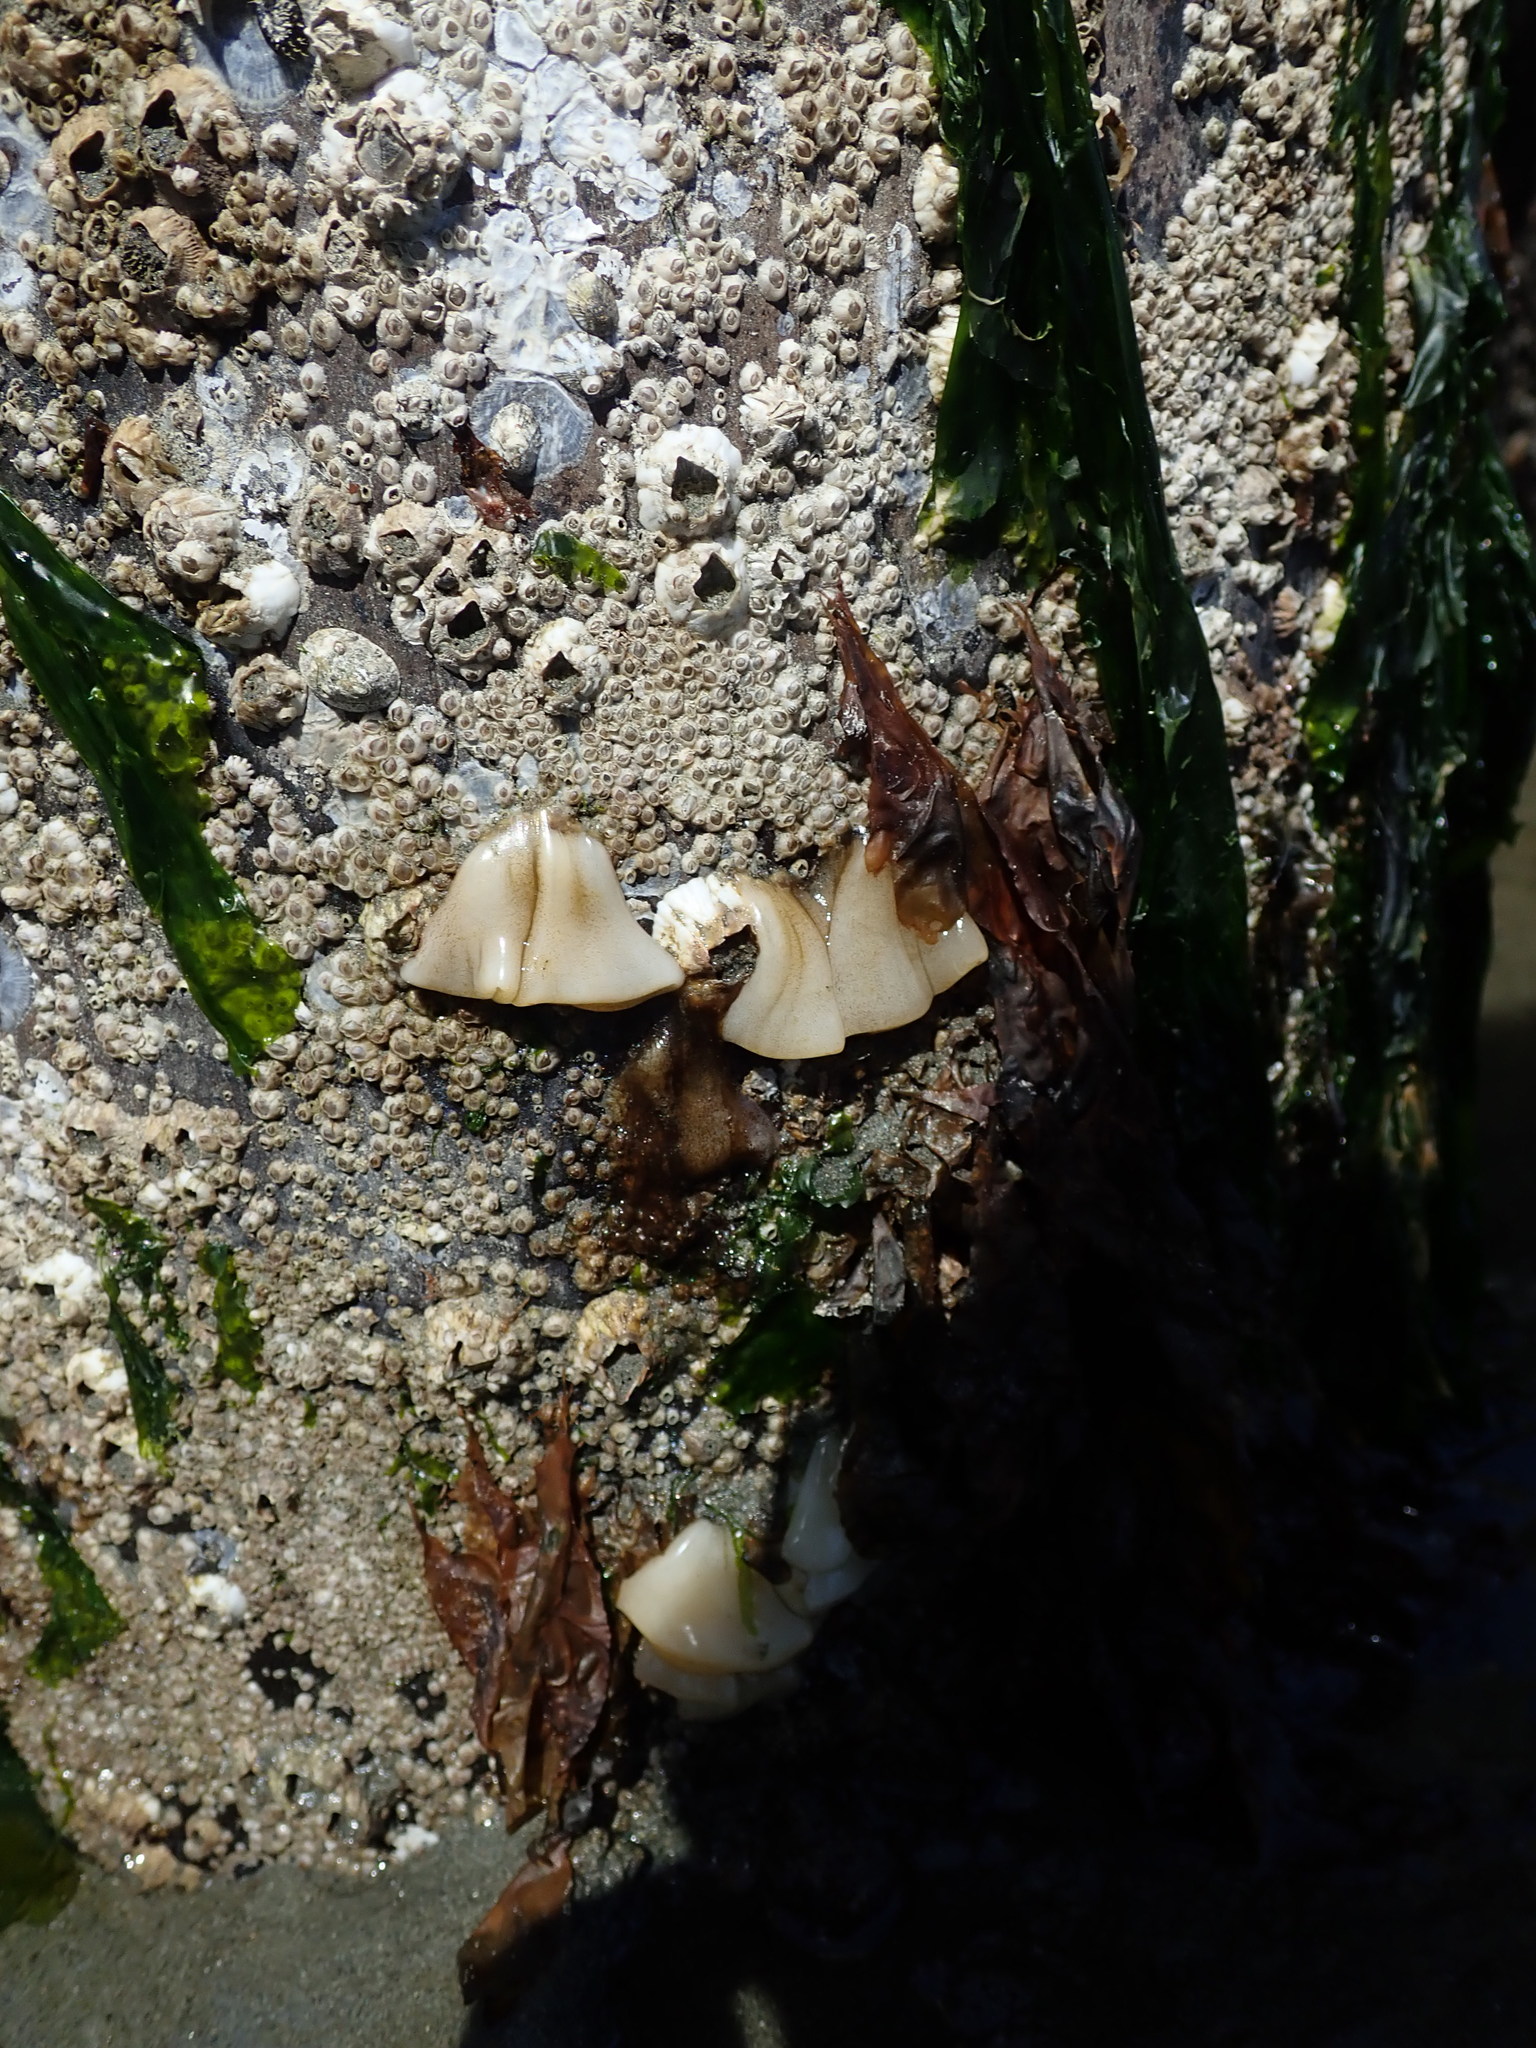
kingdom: Animalia
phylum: Mollusca
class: Gastropoda
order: Nudibranchia
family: Onchidorididae
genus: Onchidoris
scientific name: Onchidoris bilamellata
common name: Barnacle-eating onchidoris
